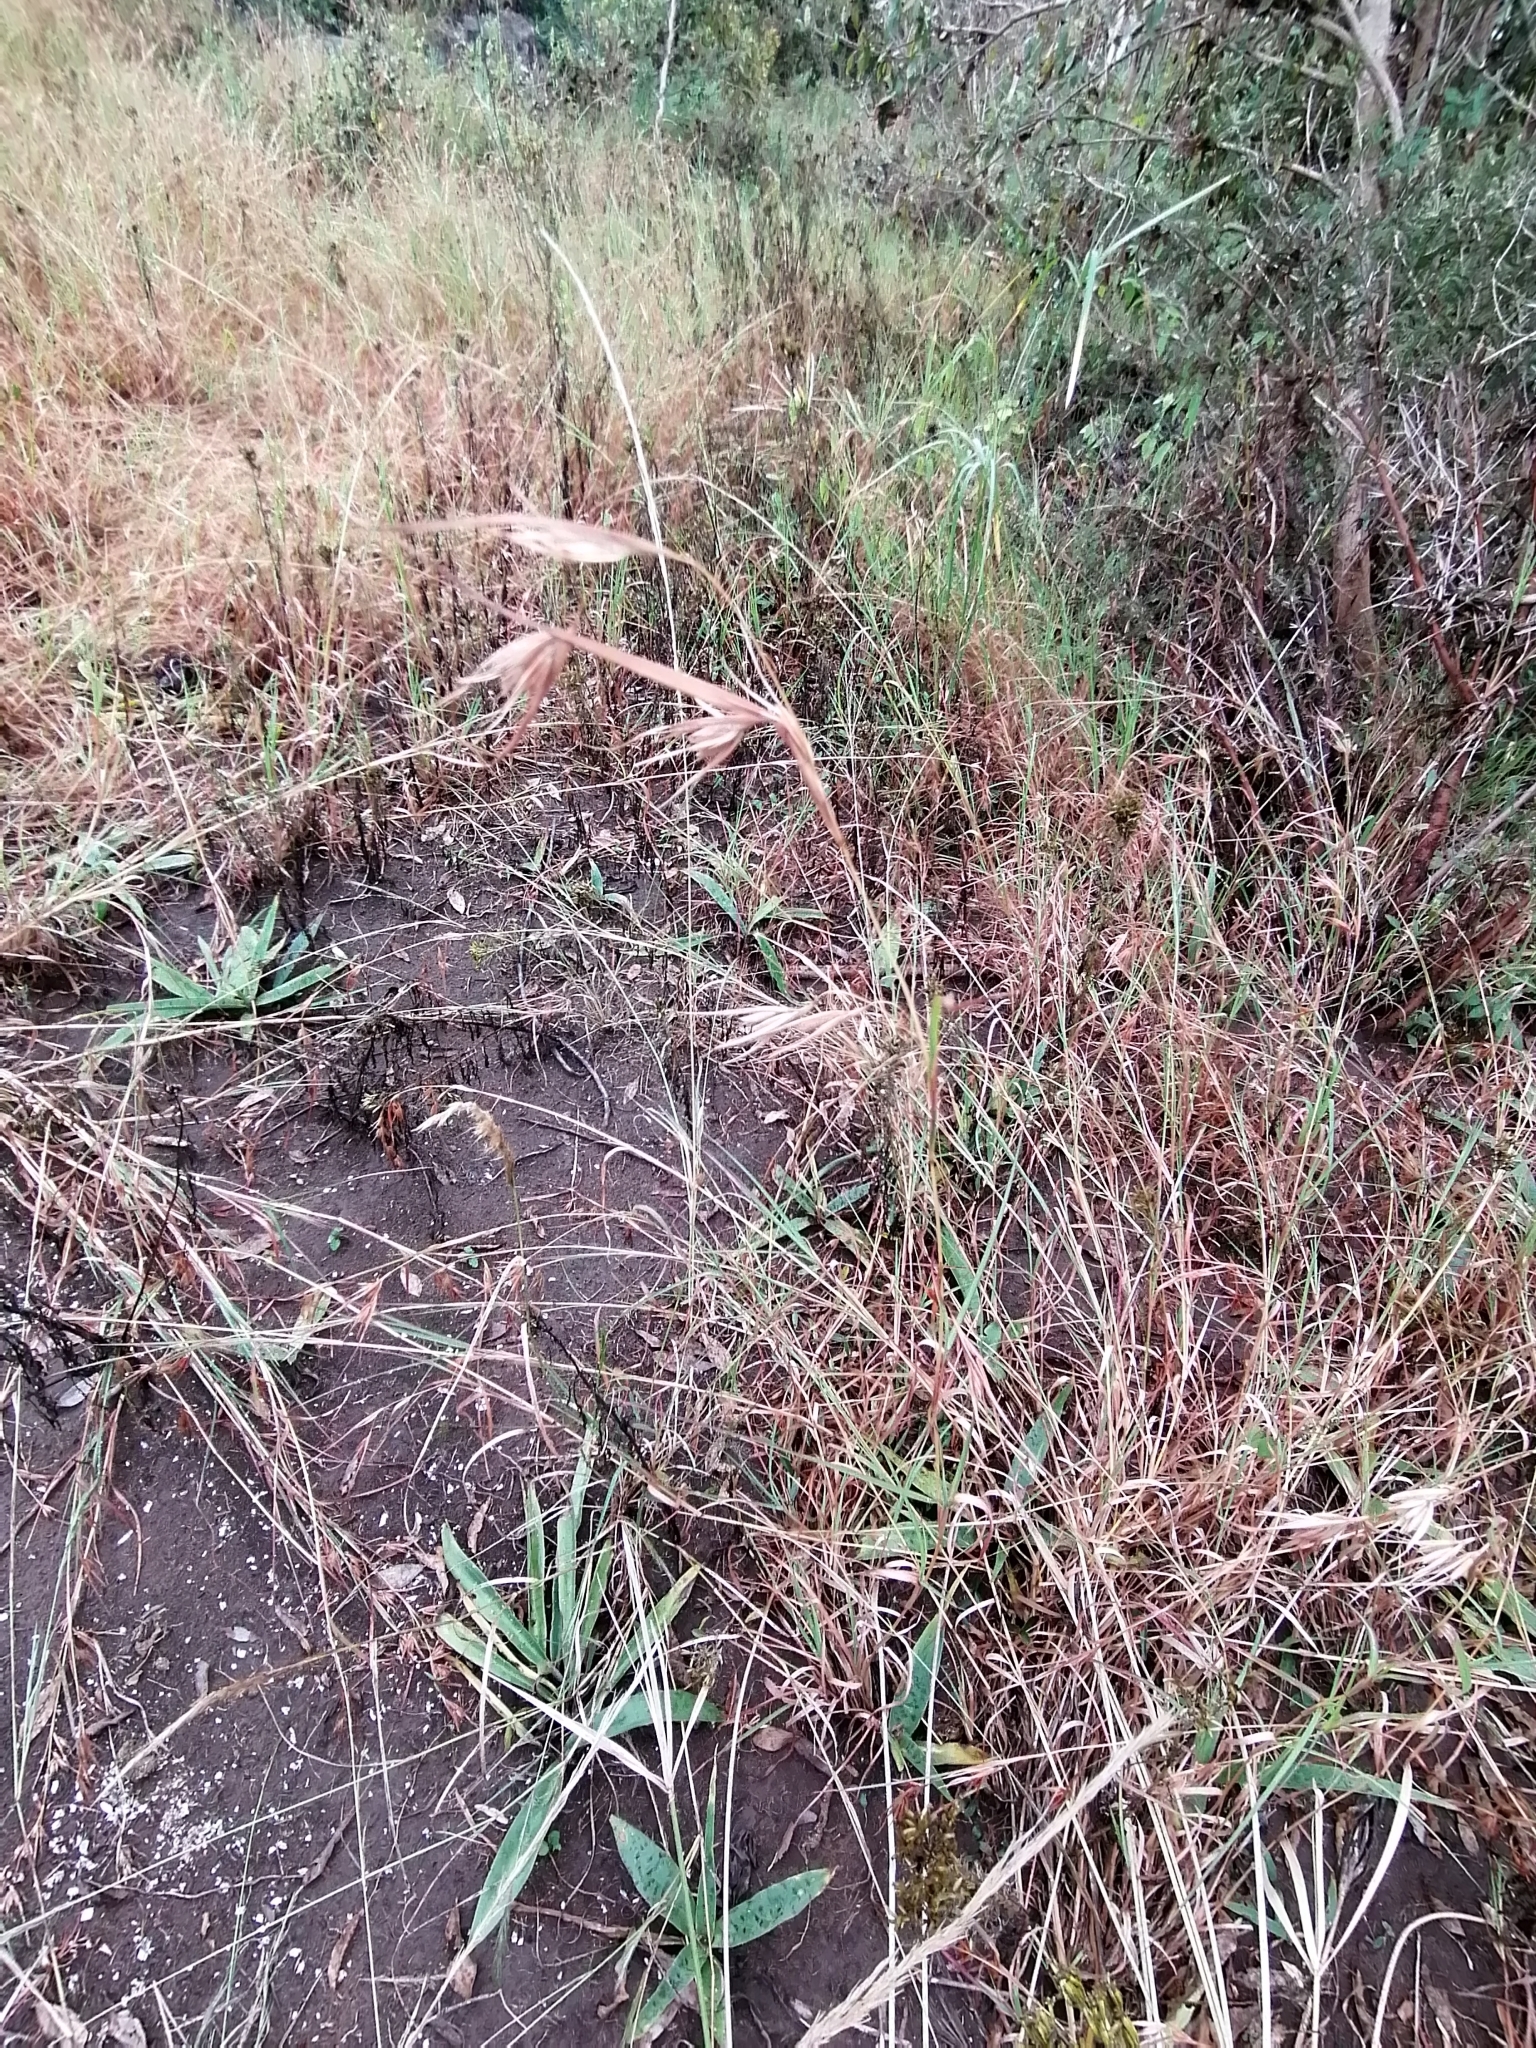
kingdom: Plantae
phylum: Tracheophyta
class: Liliopsida
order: Poales
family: Poaceae
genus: Themeda
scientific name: Themeda triandra
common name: Kangaroo grass
